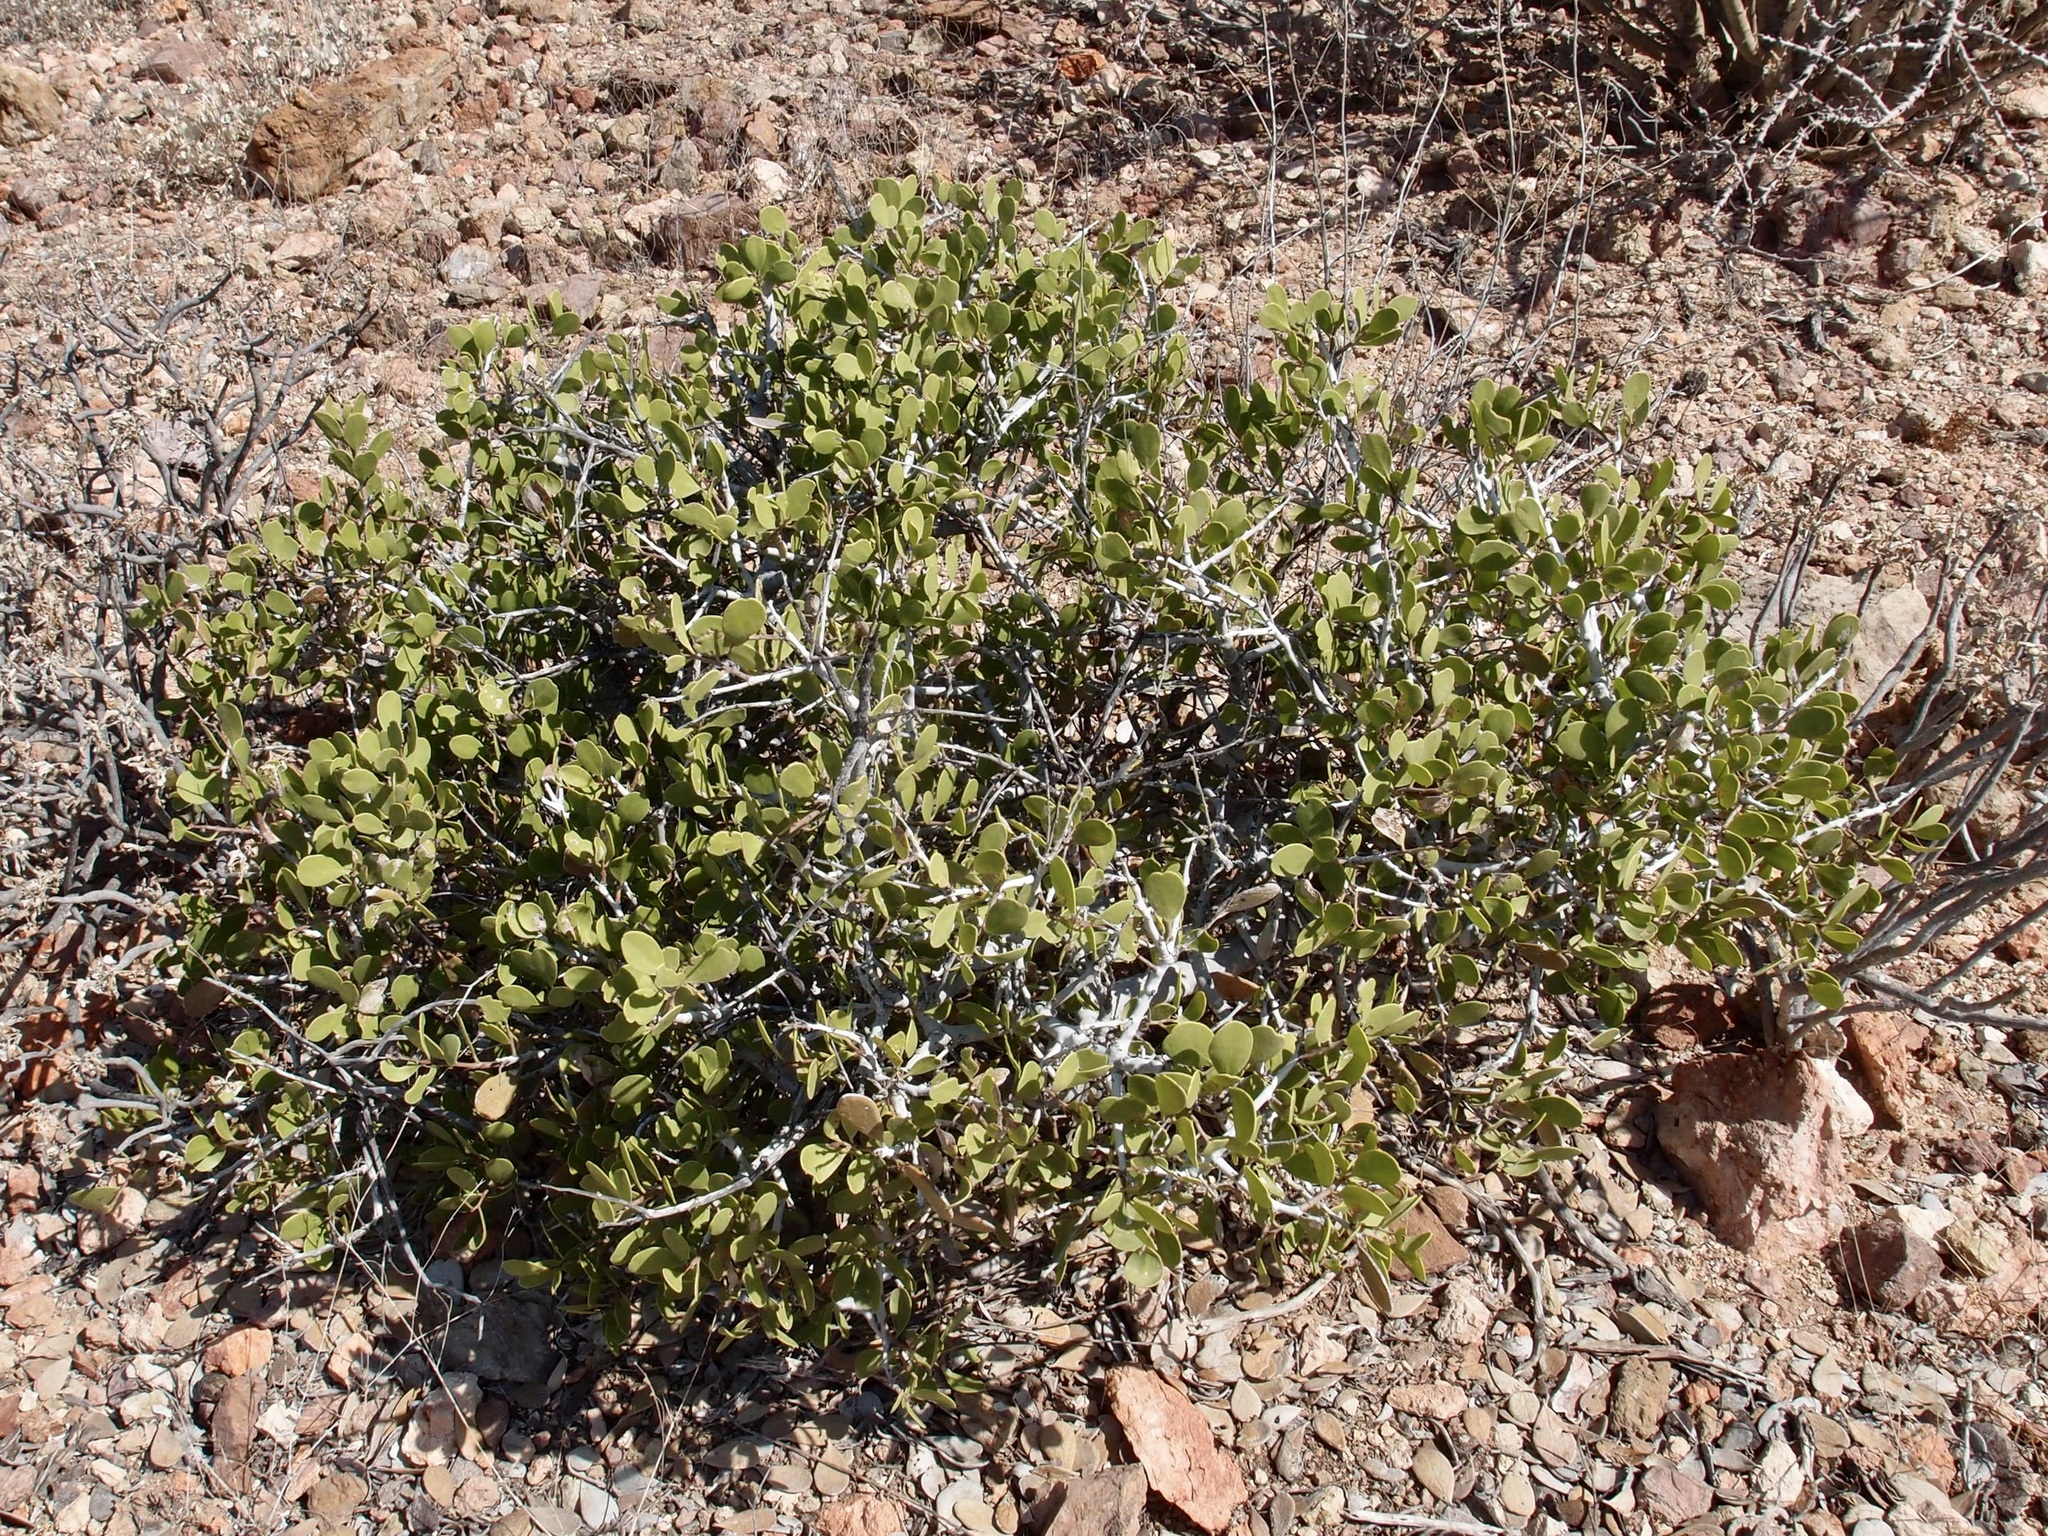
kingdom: Plantae
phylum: Tracheophyta
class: Magnoliopsida
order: Celastrales
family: Celastraceae
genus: Tricerma
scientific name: Tricerma phyllanthoides
